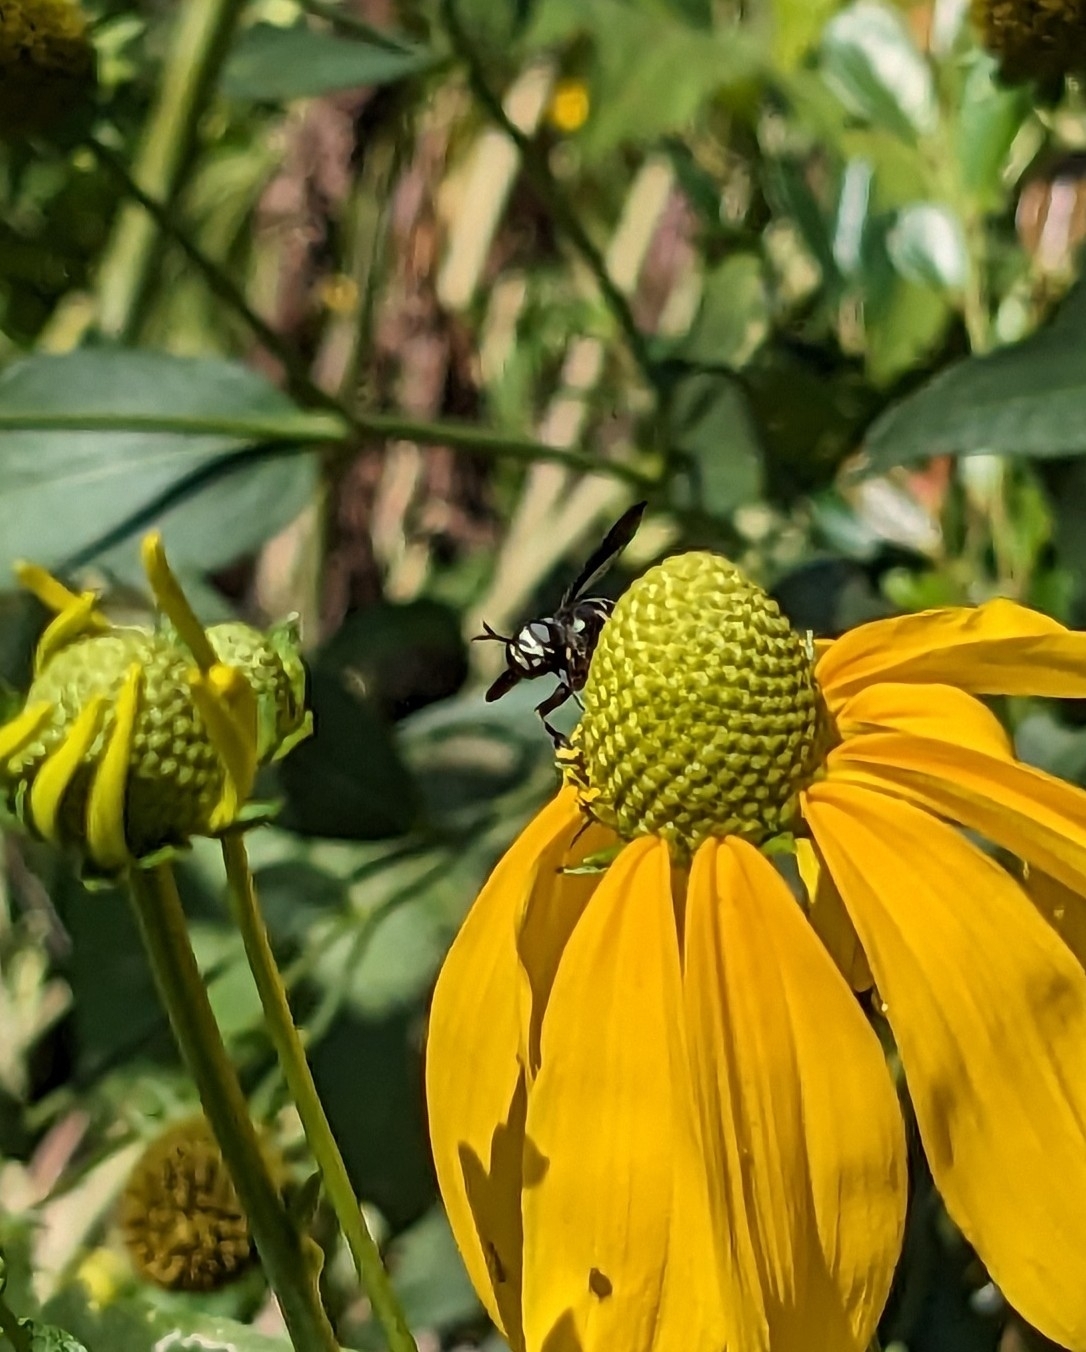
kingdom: Animalia
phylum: Arthropoda
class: Insecta
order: Diptera
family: Conopidae
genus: Physocephala
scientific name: Physocephala tibialis
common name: Common eastern physocephala
